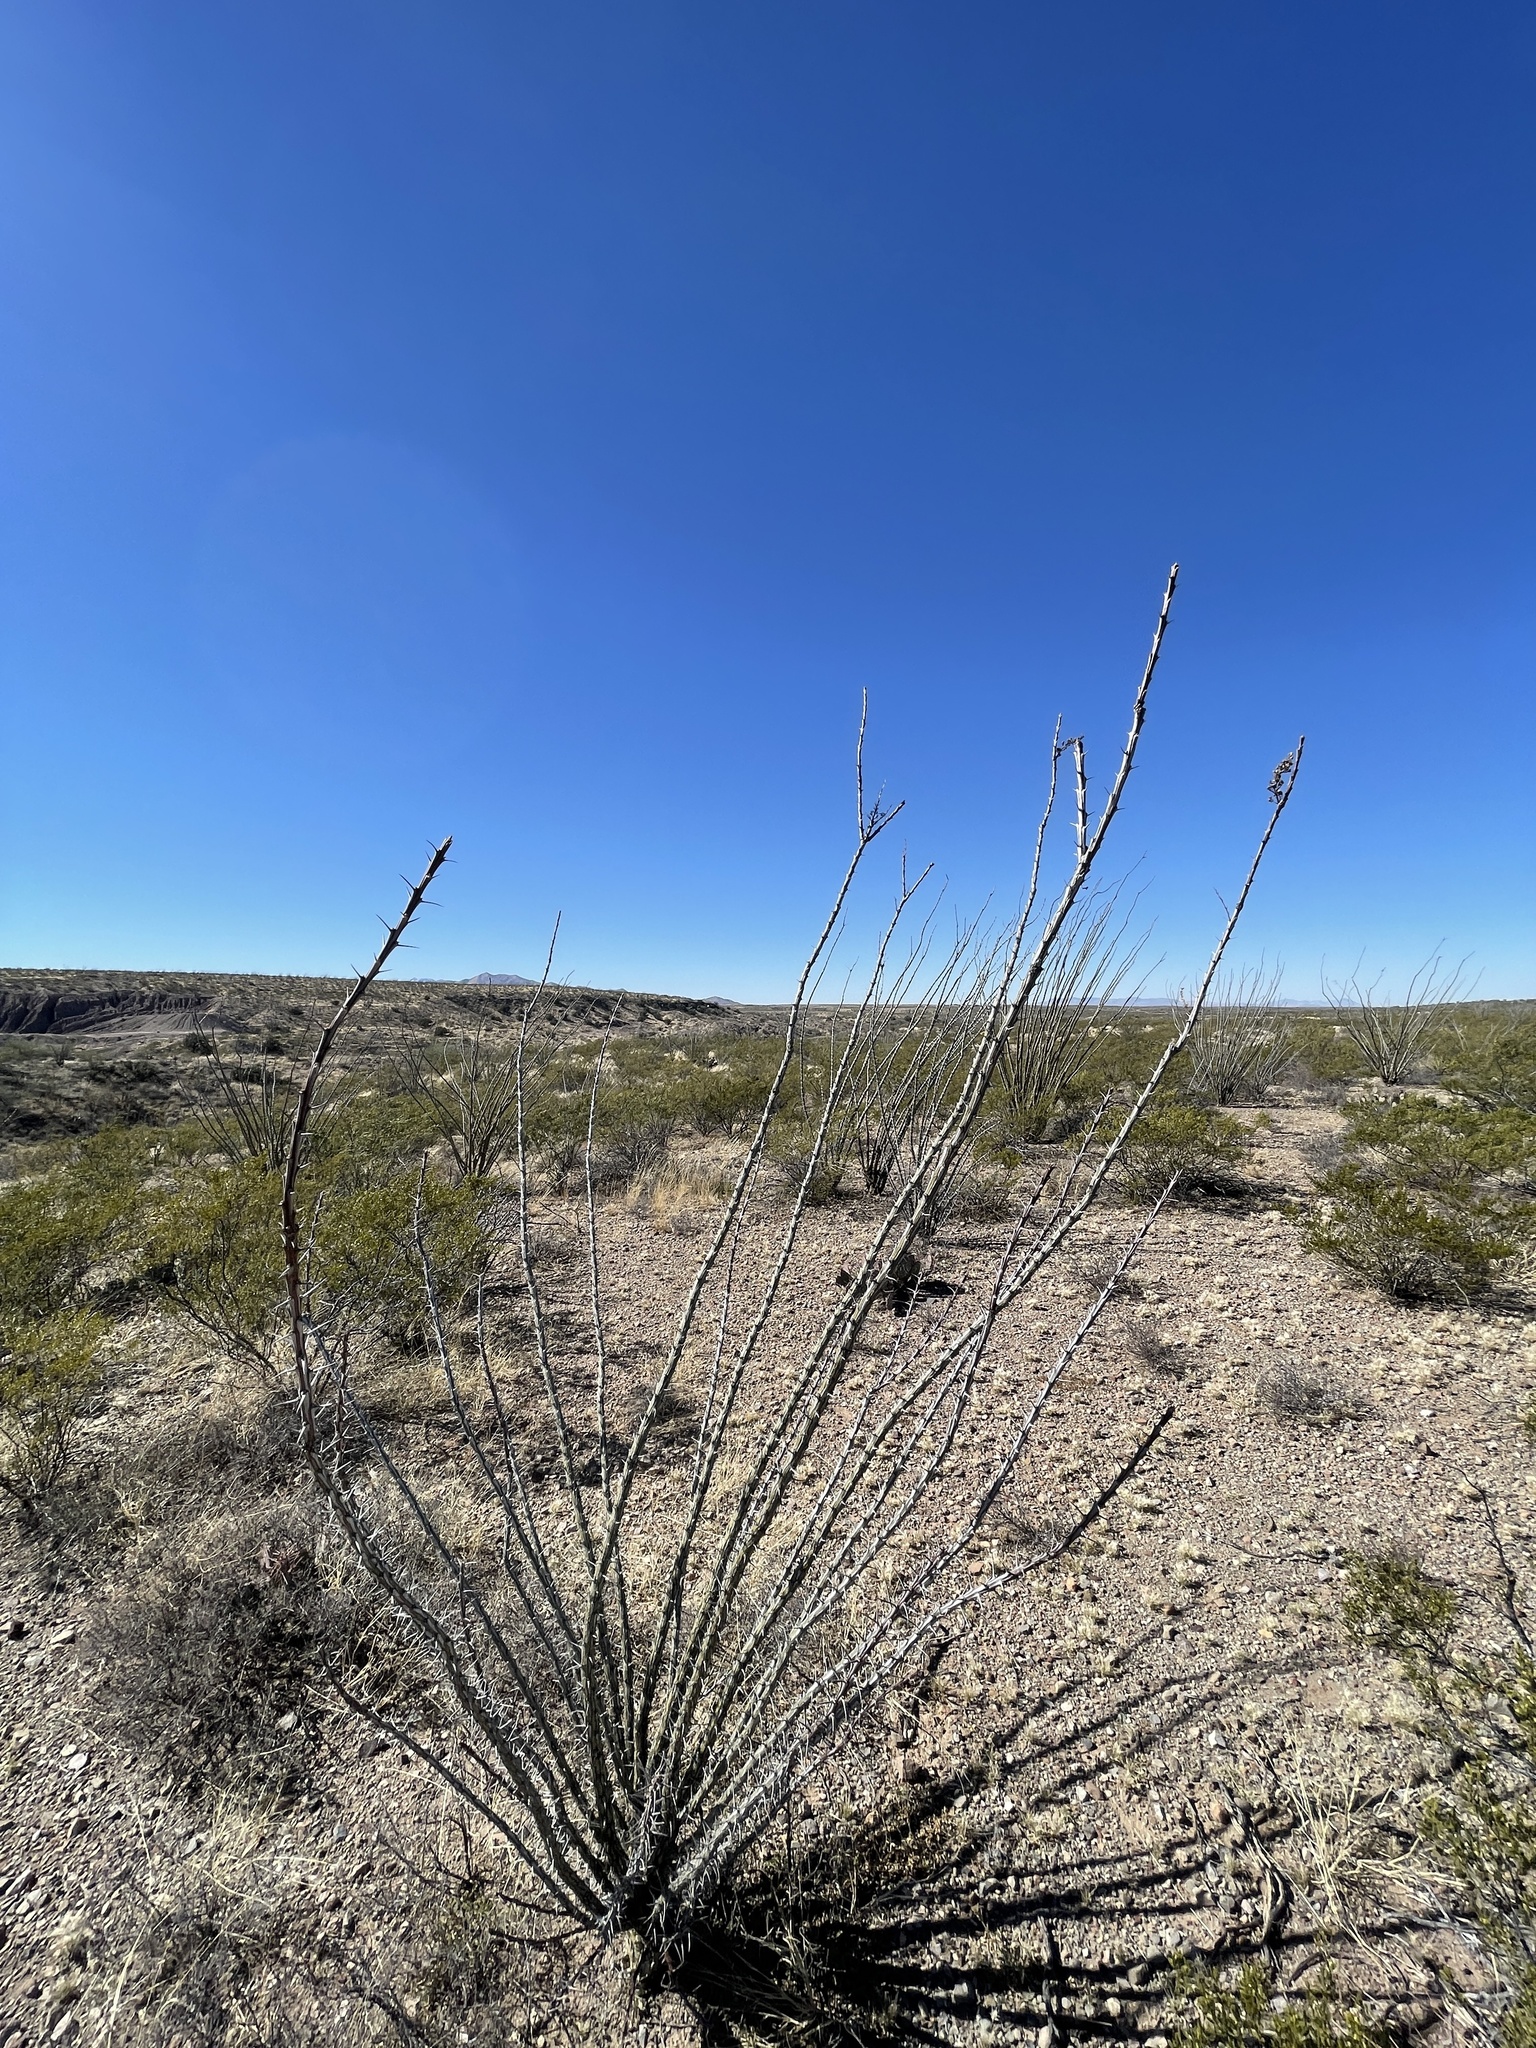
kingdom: Plantae
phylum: Tracheophyta
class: Magnoliopsida
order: Ericales
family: Fouquieriaceae
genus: Fouquieria
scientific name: Fouquieria splendens
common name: Vine-cactus
